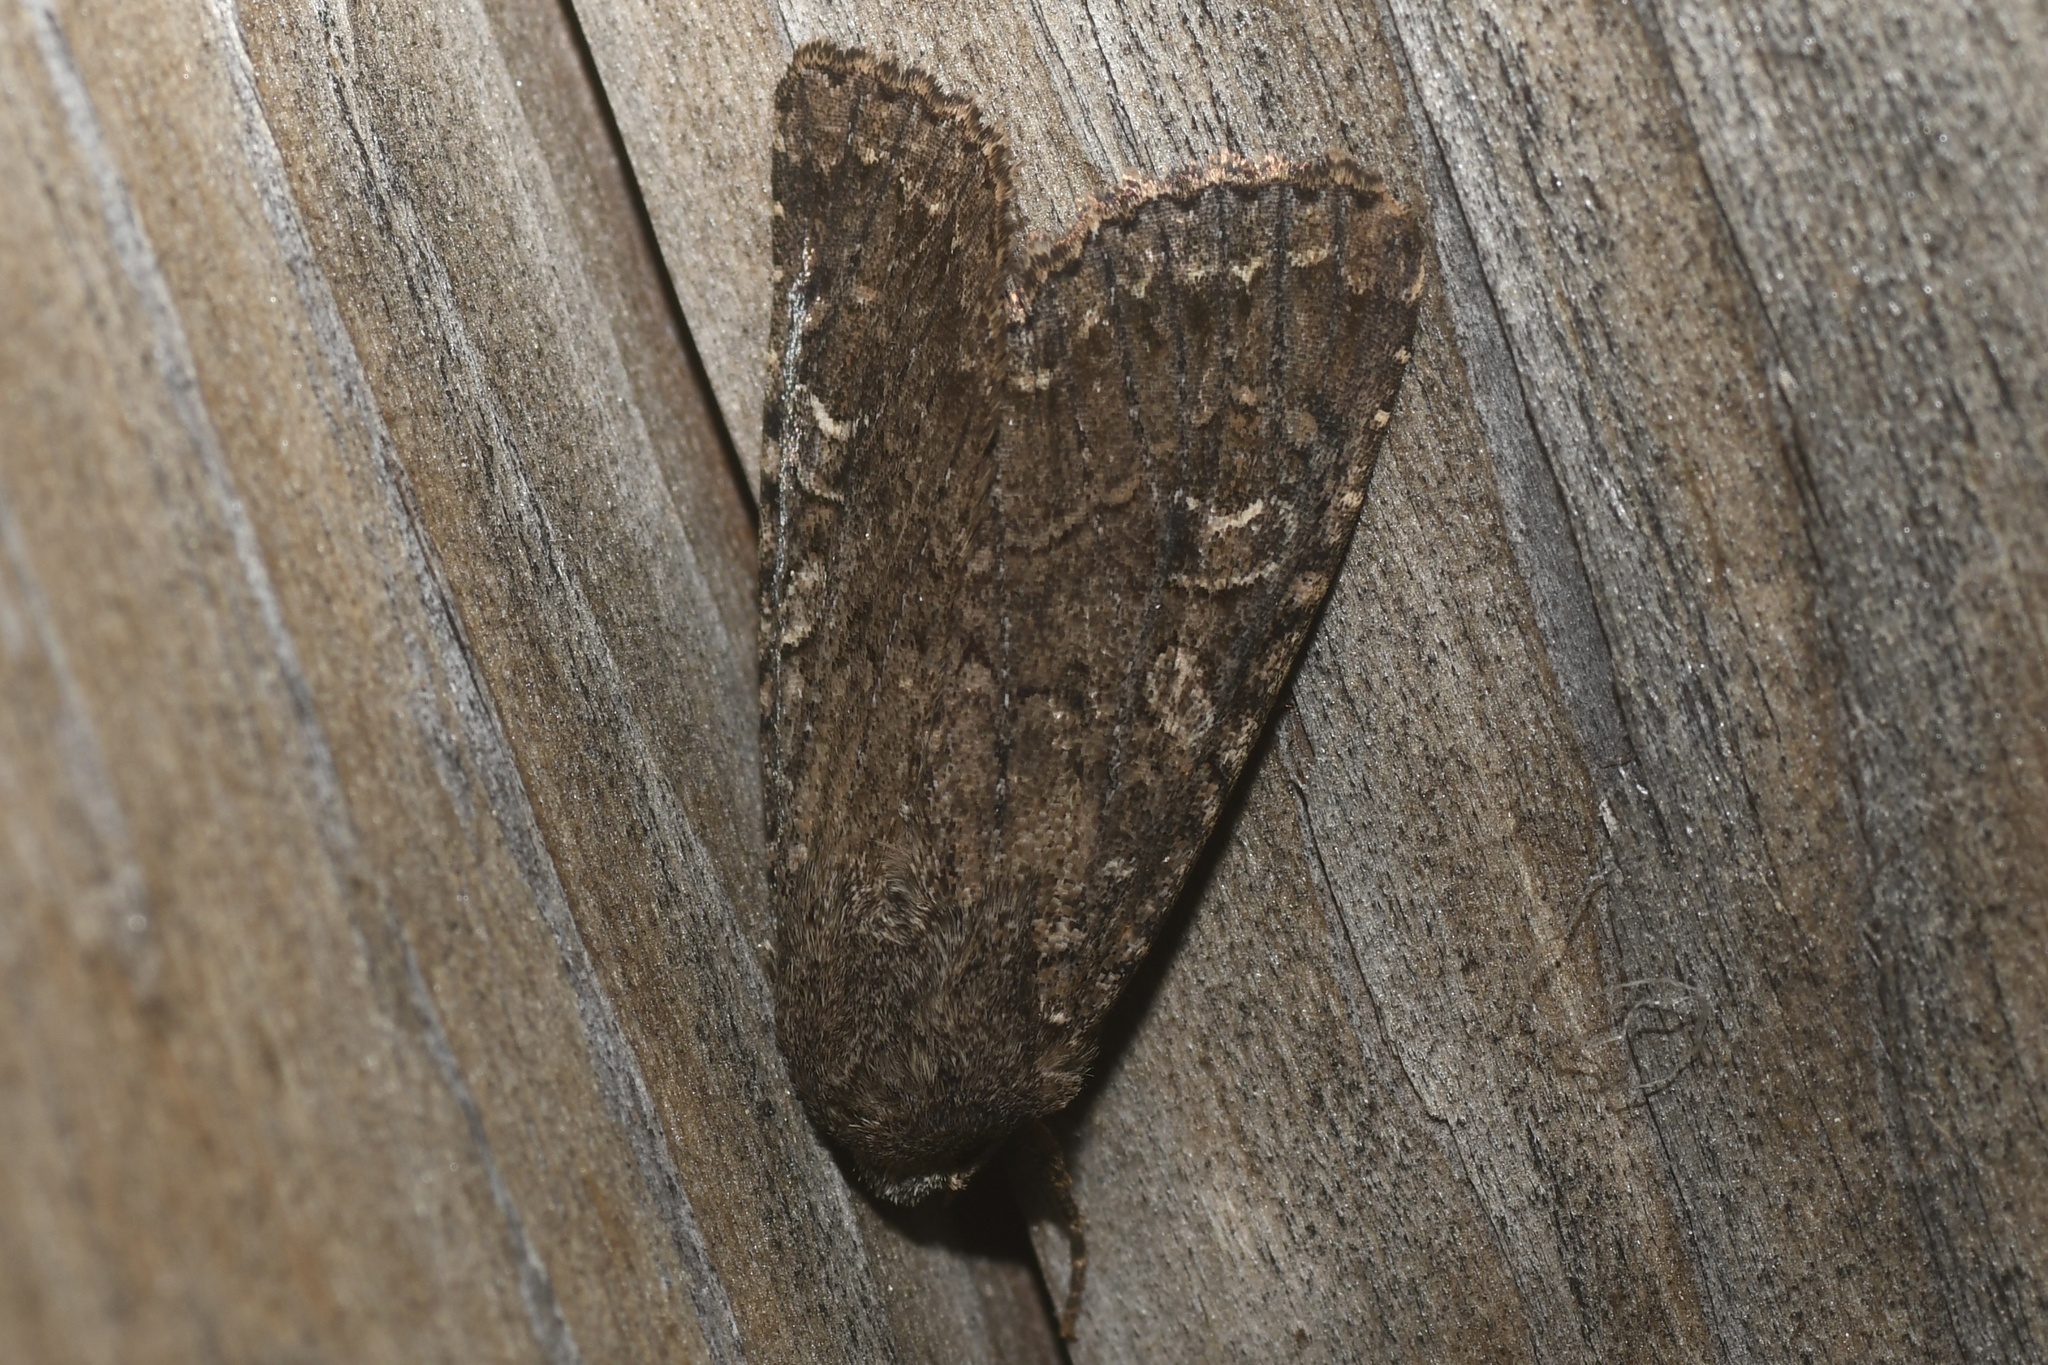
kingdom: Animalia
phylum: Arthropoda
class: Insecta
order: Lepidoptera
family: Noctuidae
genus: Apamea
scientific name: Apamea devastator
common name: Glassy cutworm
